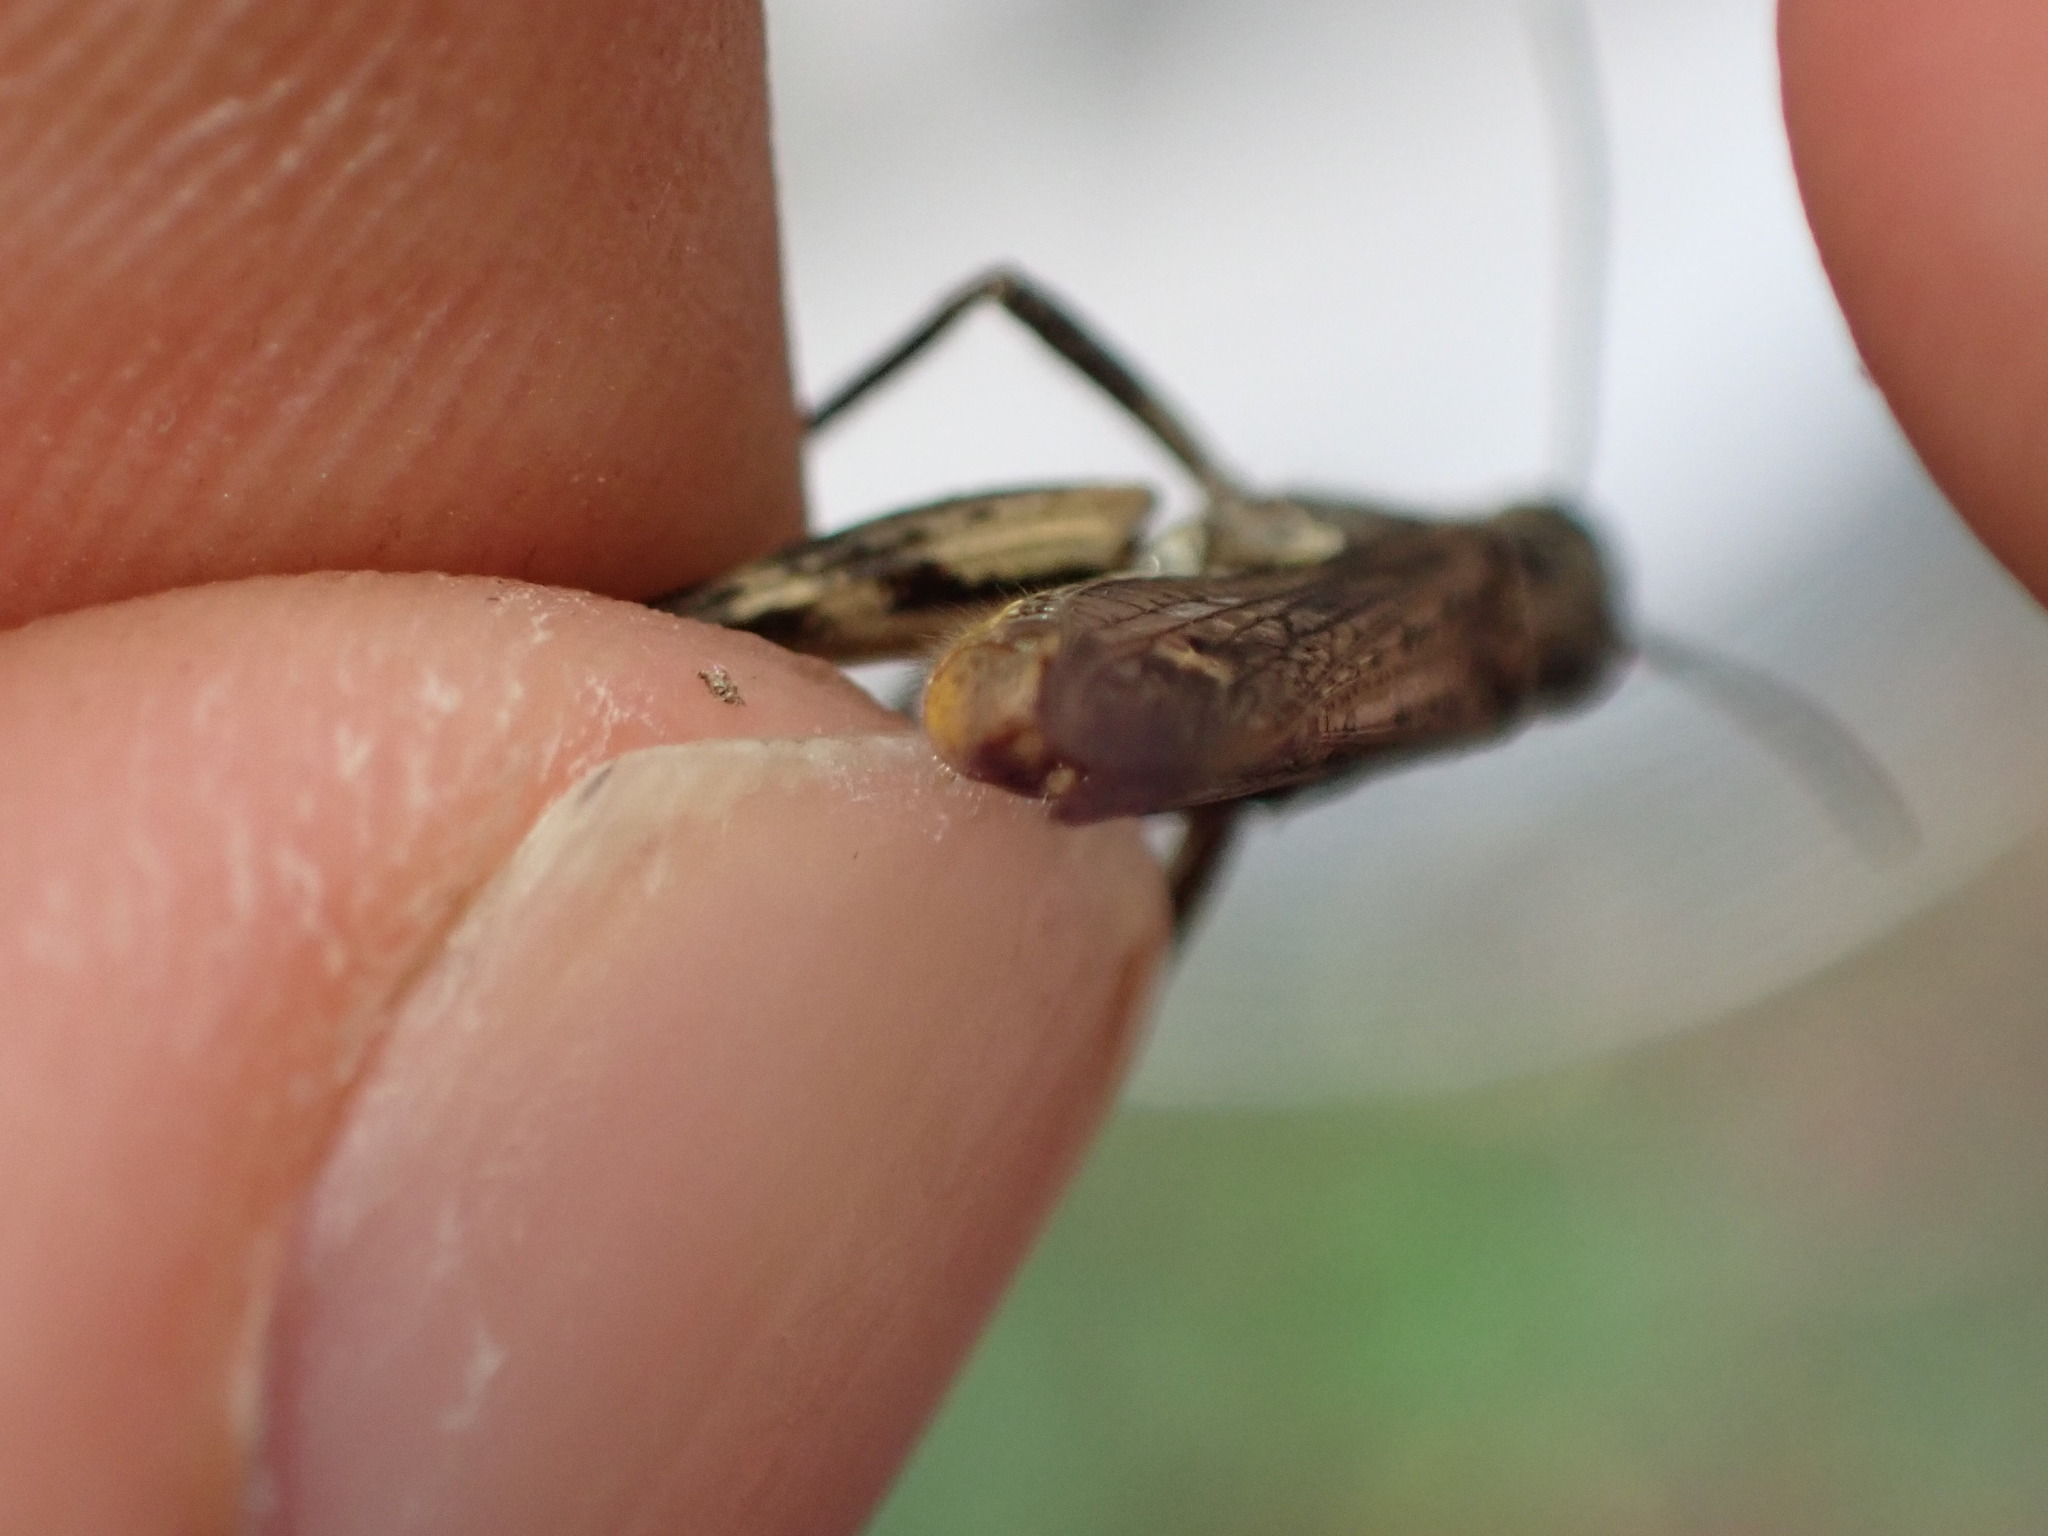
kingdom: Animalia
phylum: Arthropoda
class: Insecta
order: Orthoptera
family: Acrididae
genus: Chorthippus
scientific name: Chorthippus biguttulus
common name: Bow-winged grasshopper
